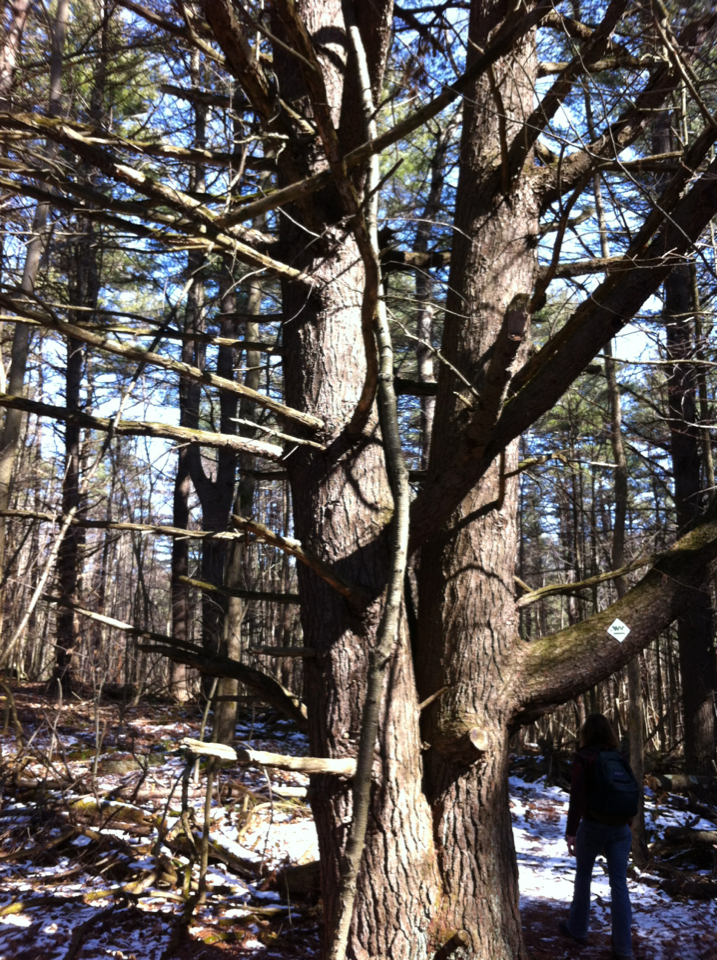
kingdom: Plantae
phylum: Tracheophyta
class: Pinopsida
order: Pinales
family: Pinaceae
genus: Pinus
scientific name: Pinus strobus
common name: Weymouth pine
